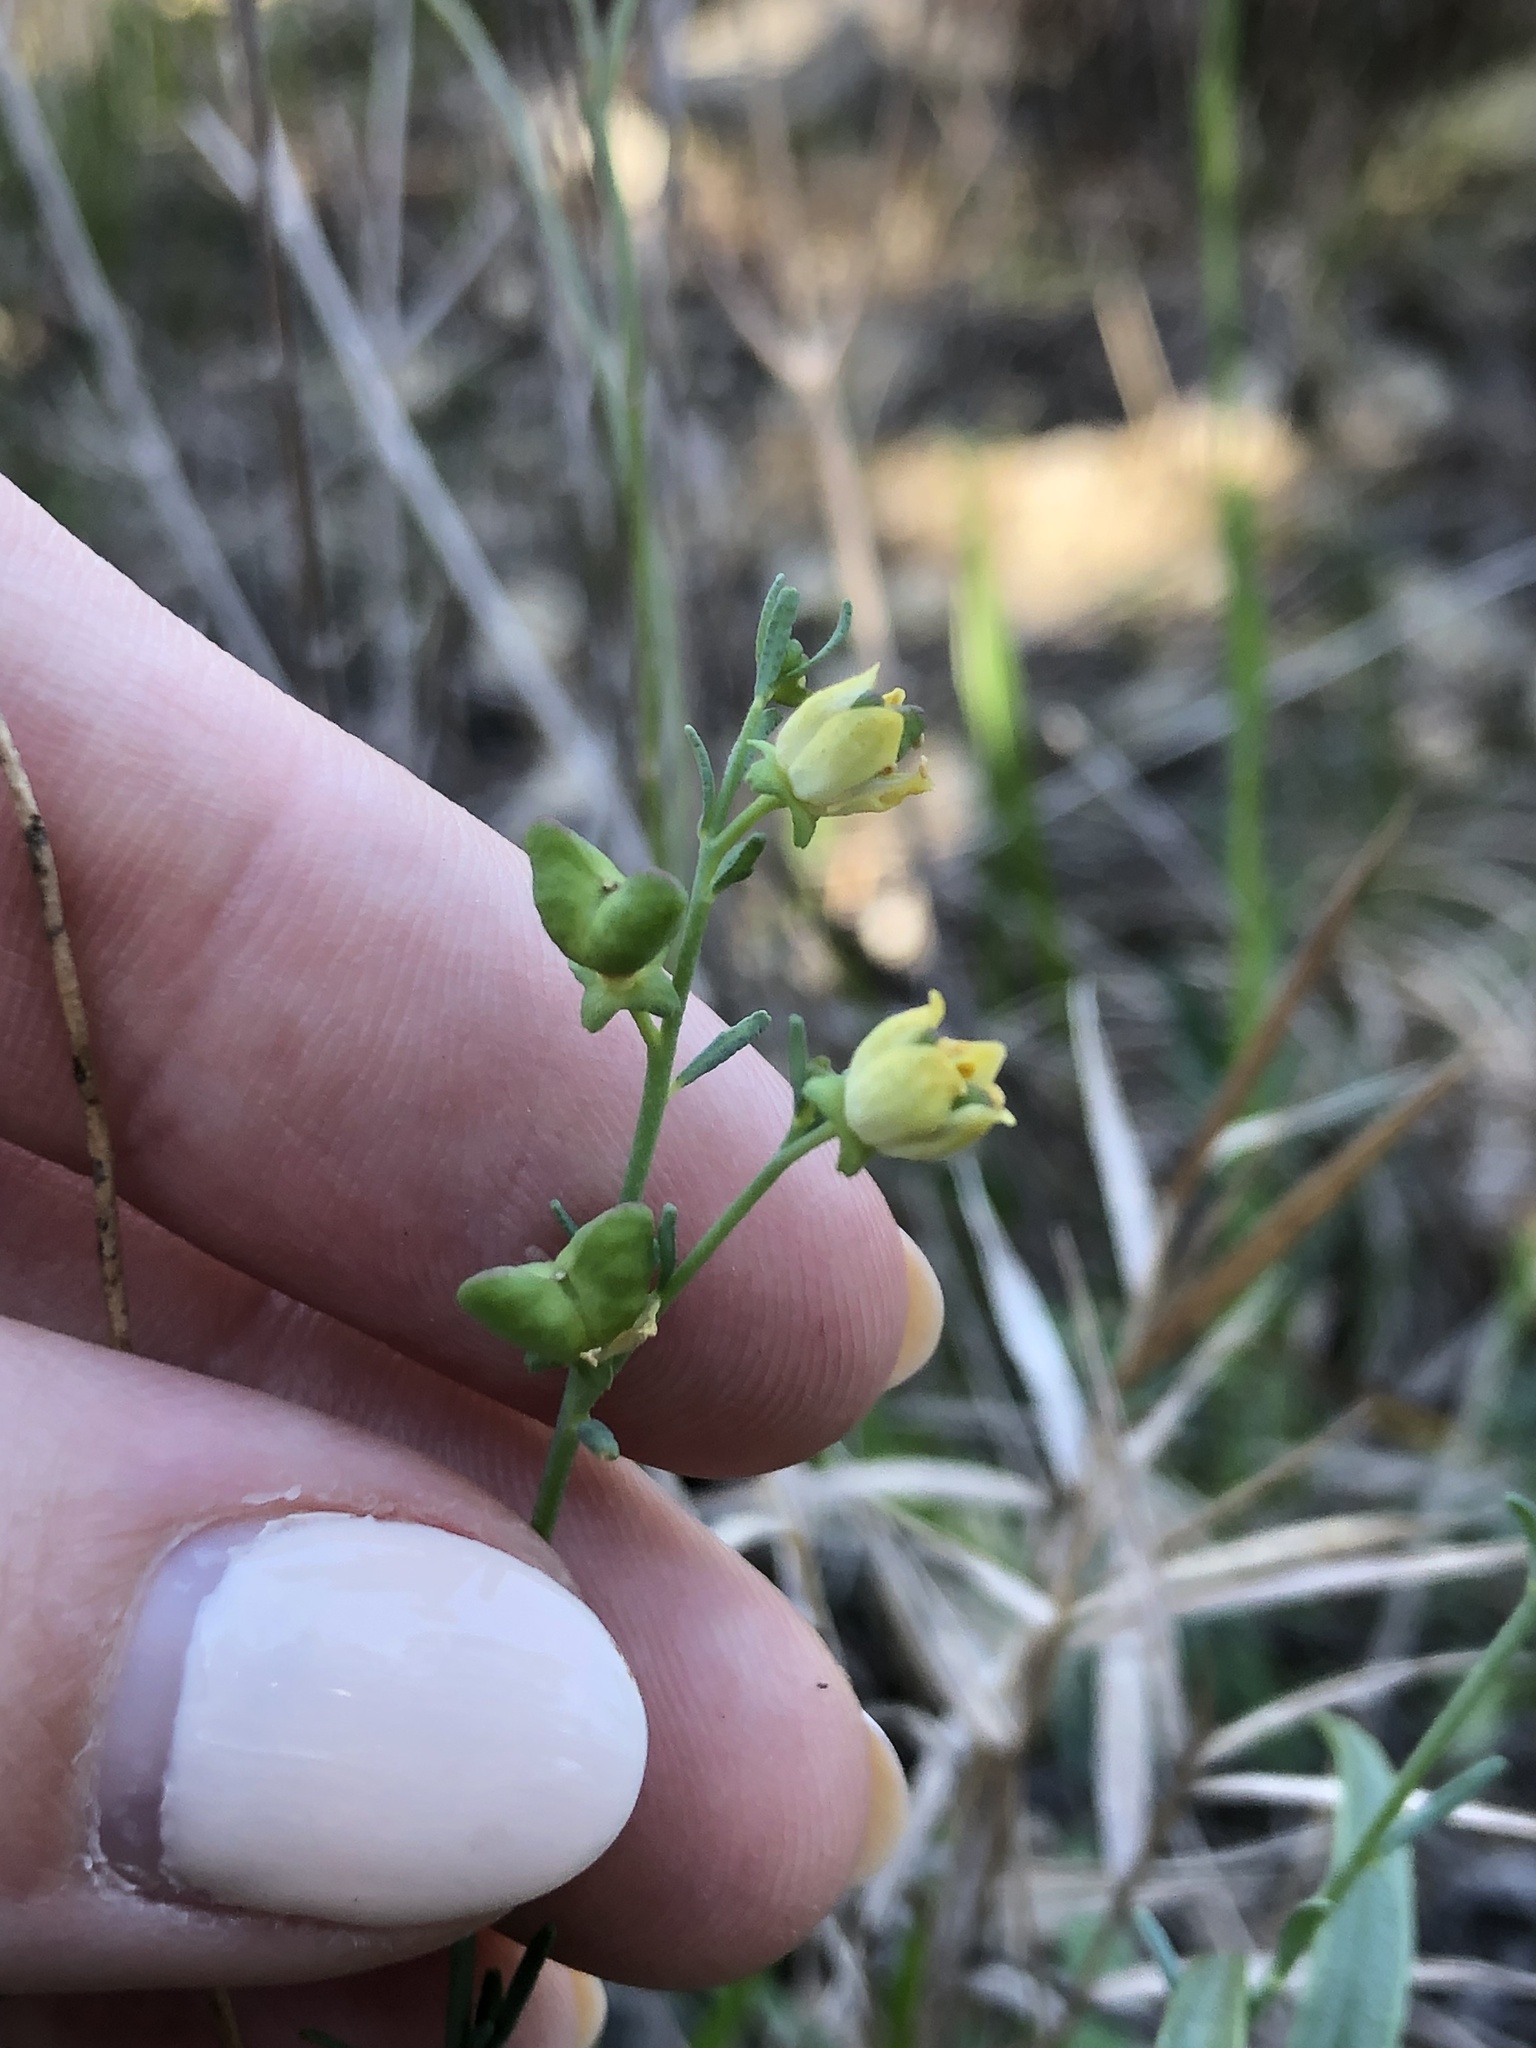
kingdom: Plantae
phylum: Tracheophyta
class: Magnoliopsida
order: Sapindales
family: Rutaceae
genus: Thamnosma
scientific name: Thamnosma texana
